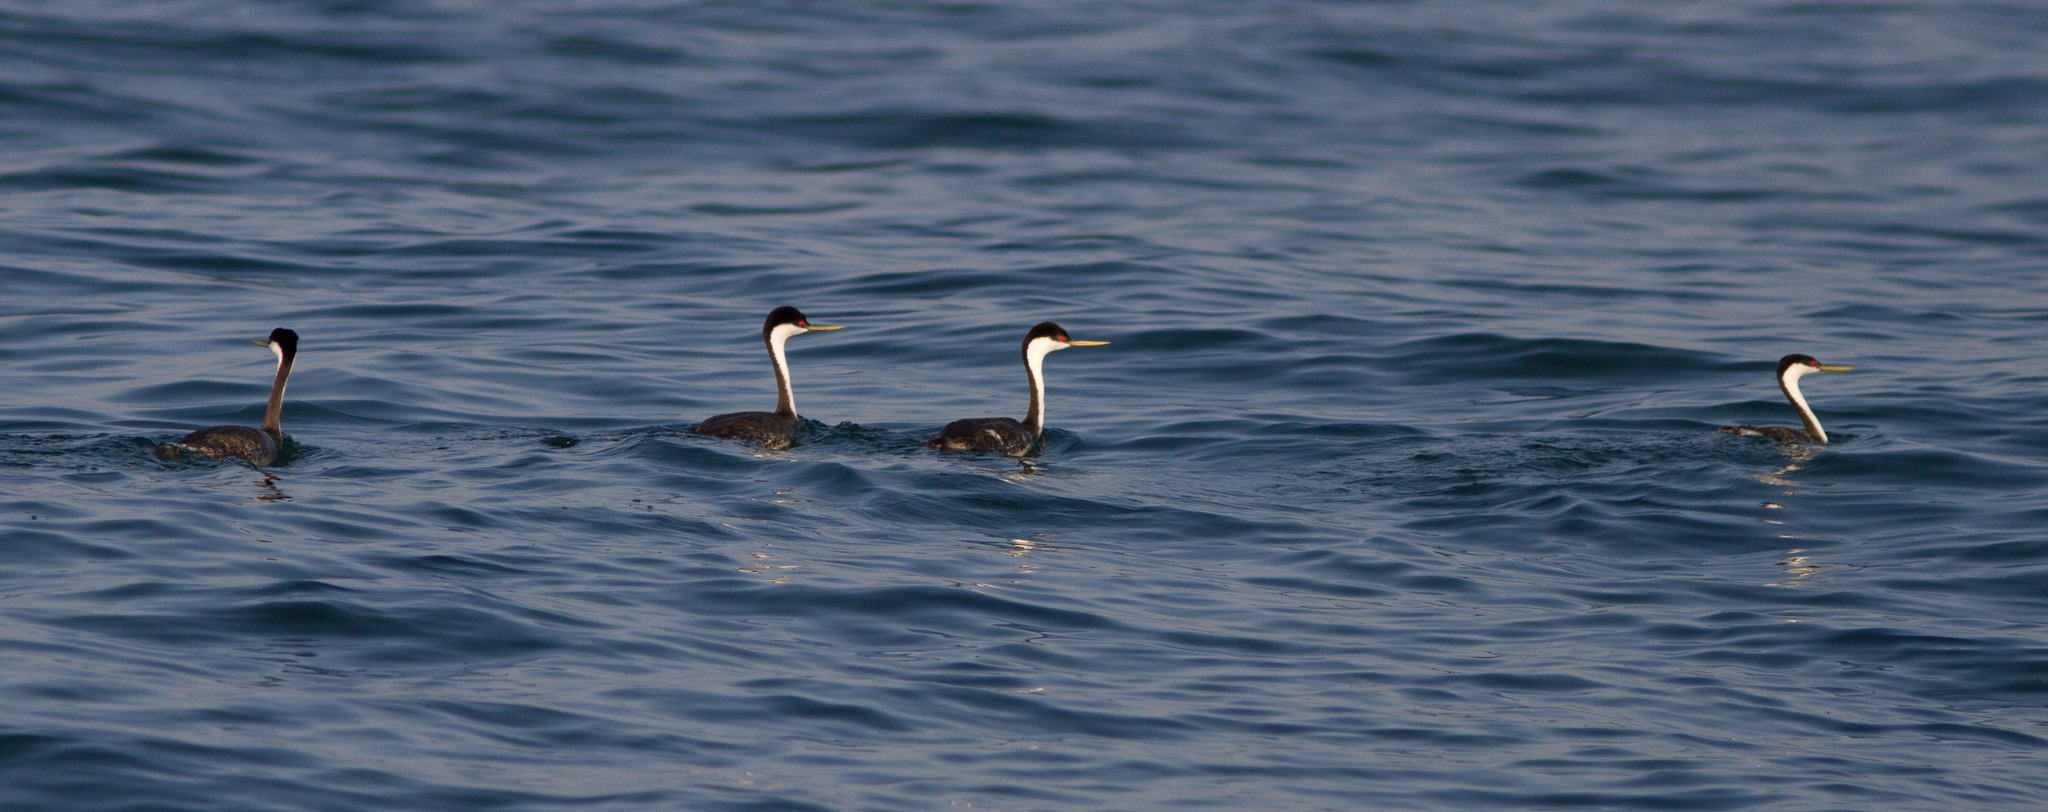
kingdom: Animalia
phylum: Chordata
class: Aves
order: Podicipediformes
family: Podicipedidae
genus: Aechmophorus
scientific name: Aechmophorus occidentalis
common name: Western grebe
